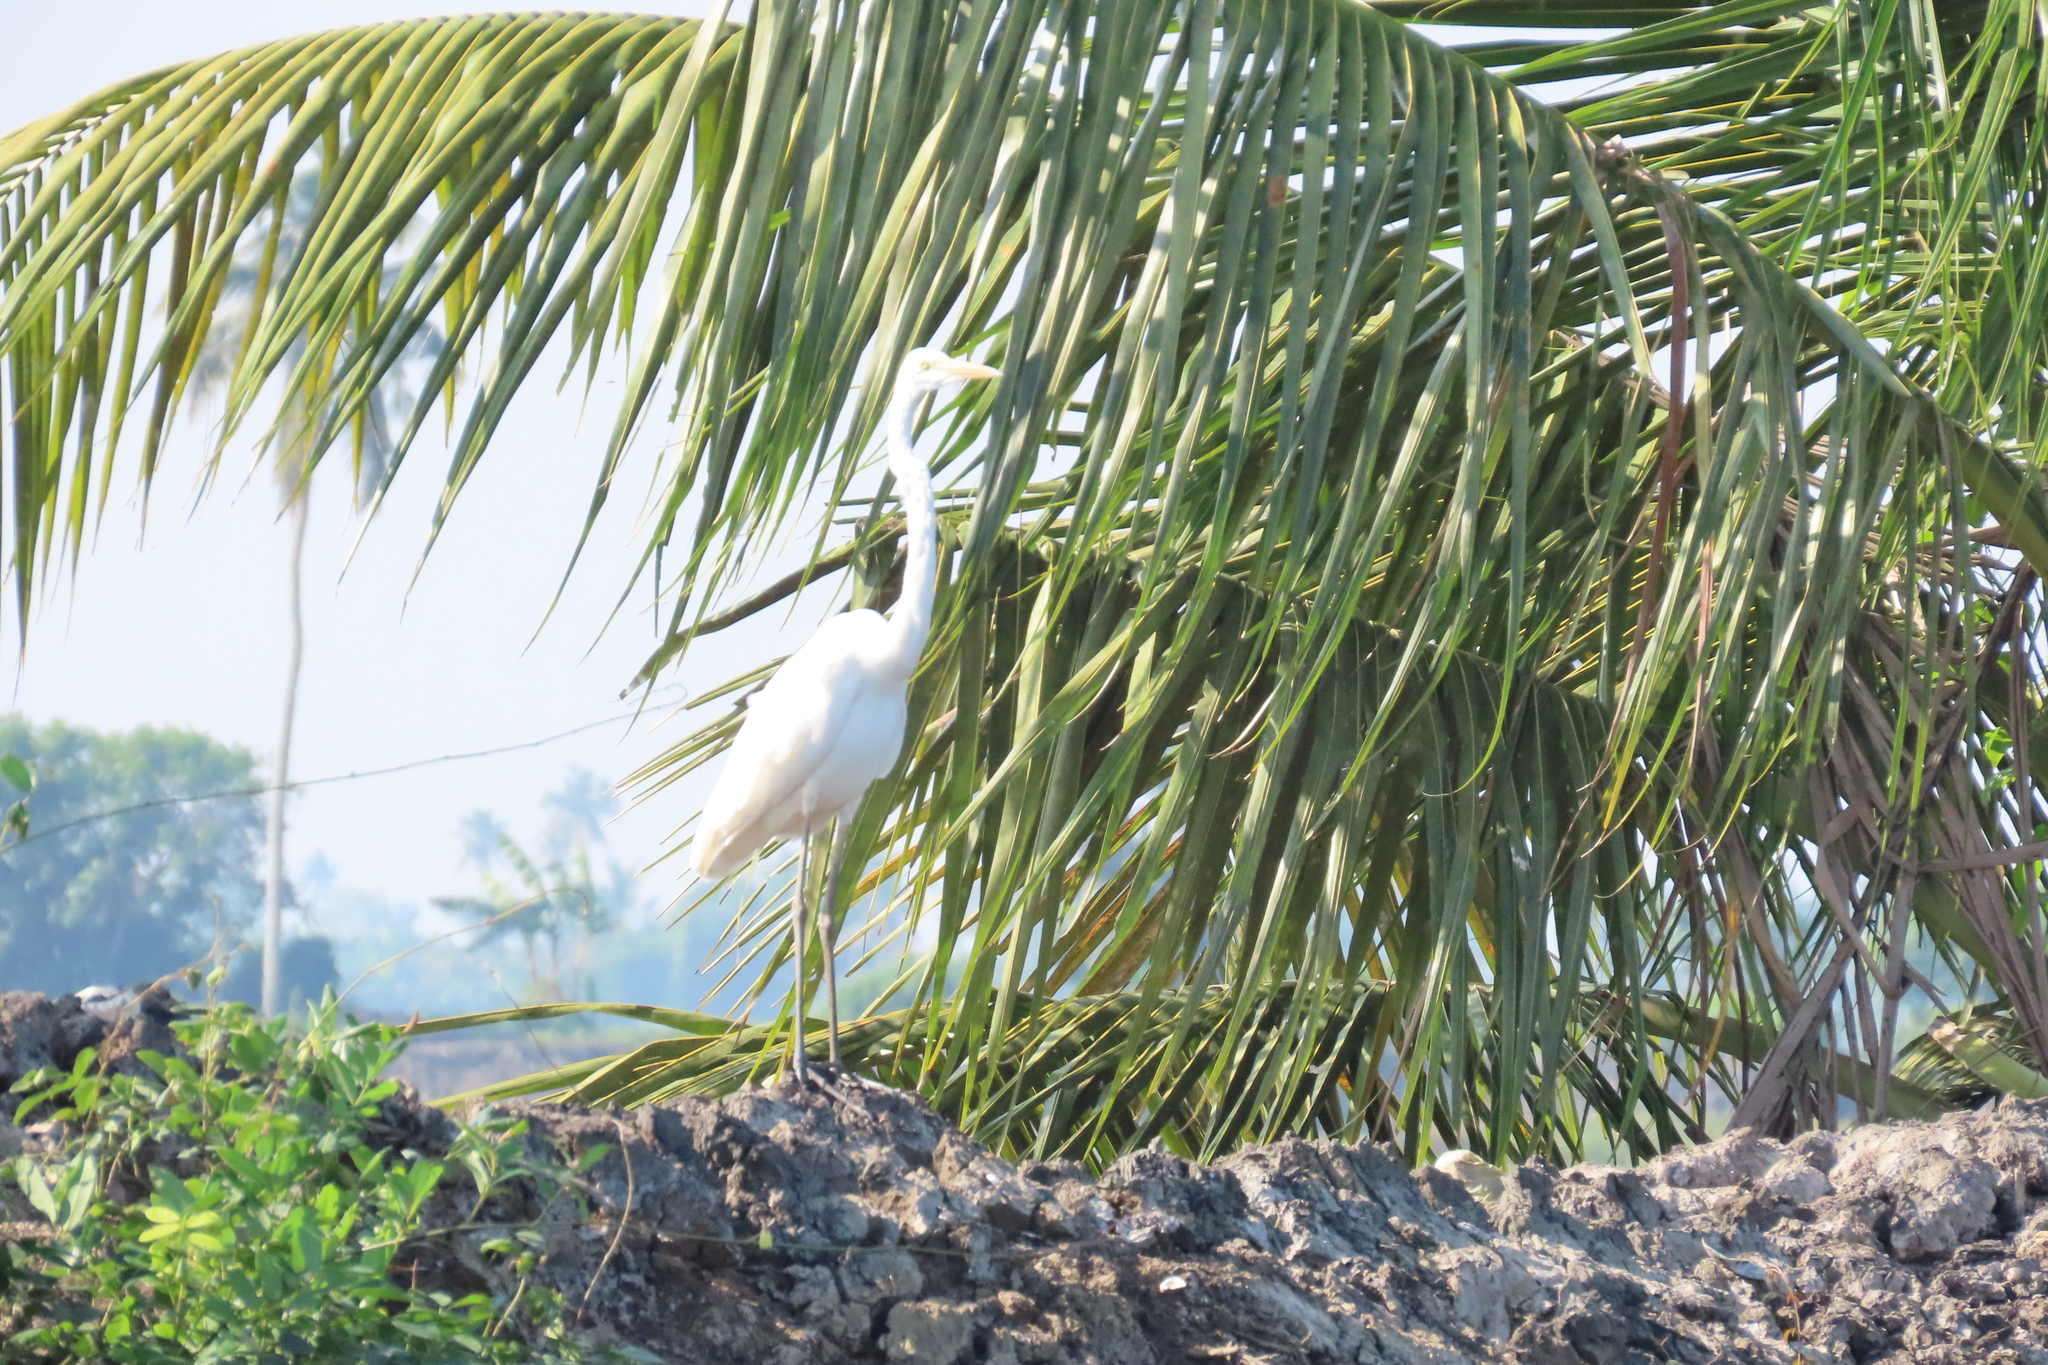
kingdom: Animalia
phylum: Chordata
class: Aves
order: Pelecaniformes
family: Ardeidae
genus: Ardea
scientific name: Ardea alba
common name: Great egret
